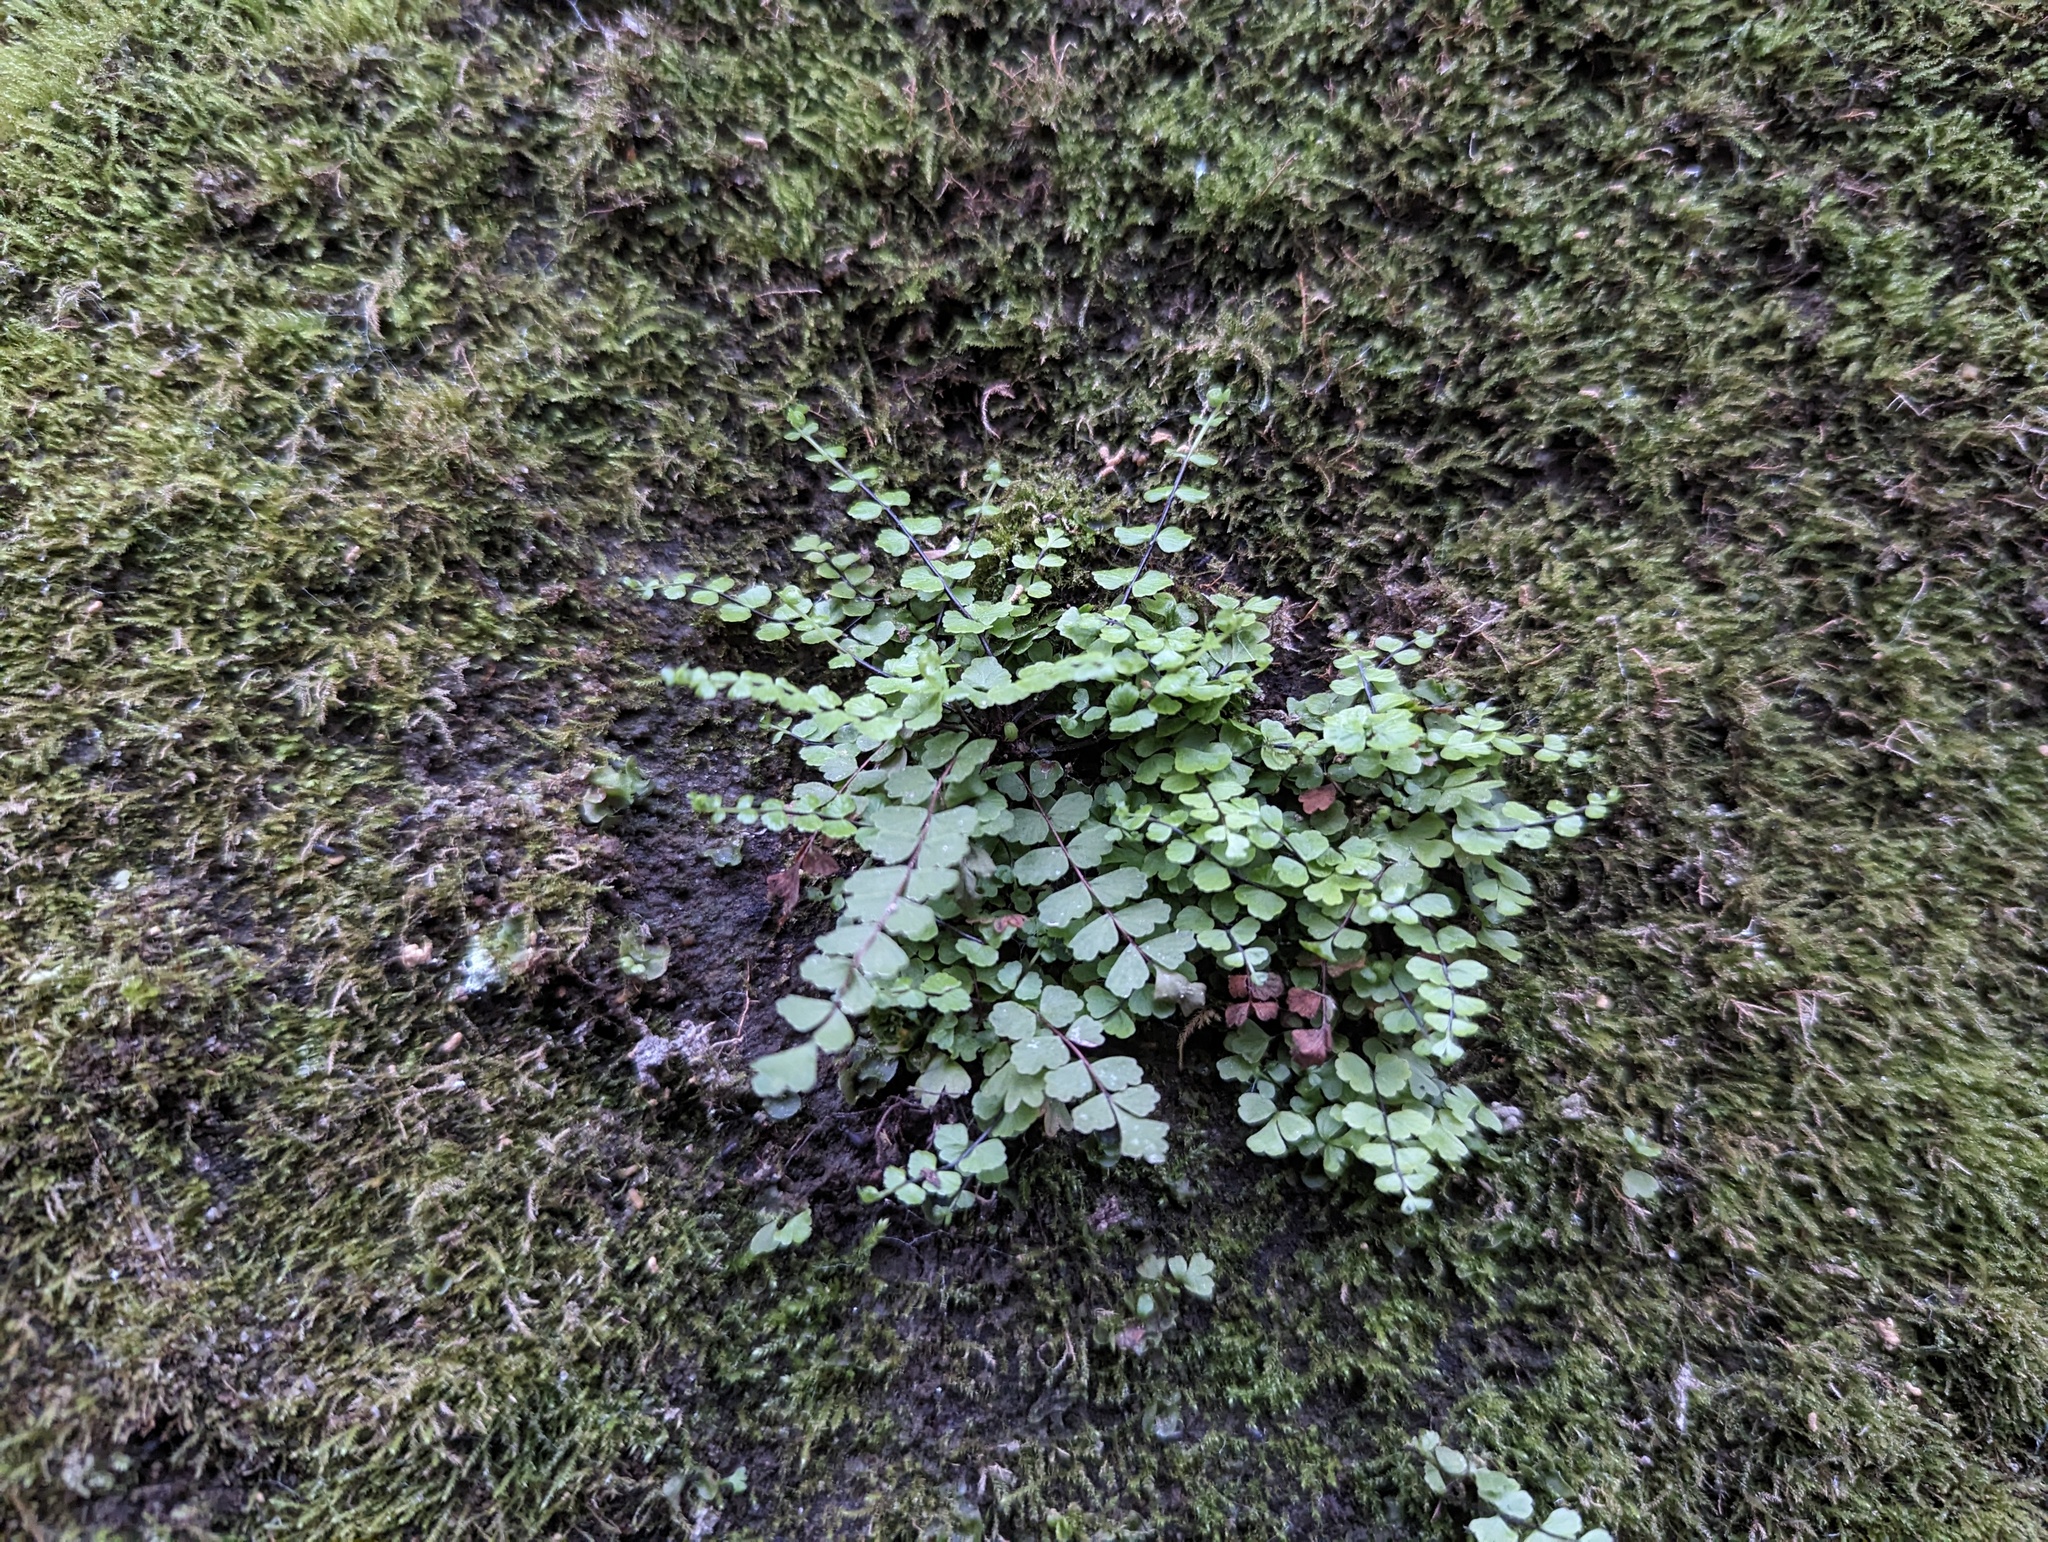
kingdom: Plantae
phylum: Tracheophyta
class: Polypodiopsida
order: Polypodiales
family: Aspleniaceae
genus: Asplenium
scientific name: Asplenium trichomanes
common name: Maidenhair spleenwort
